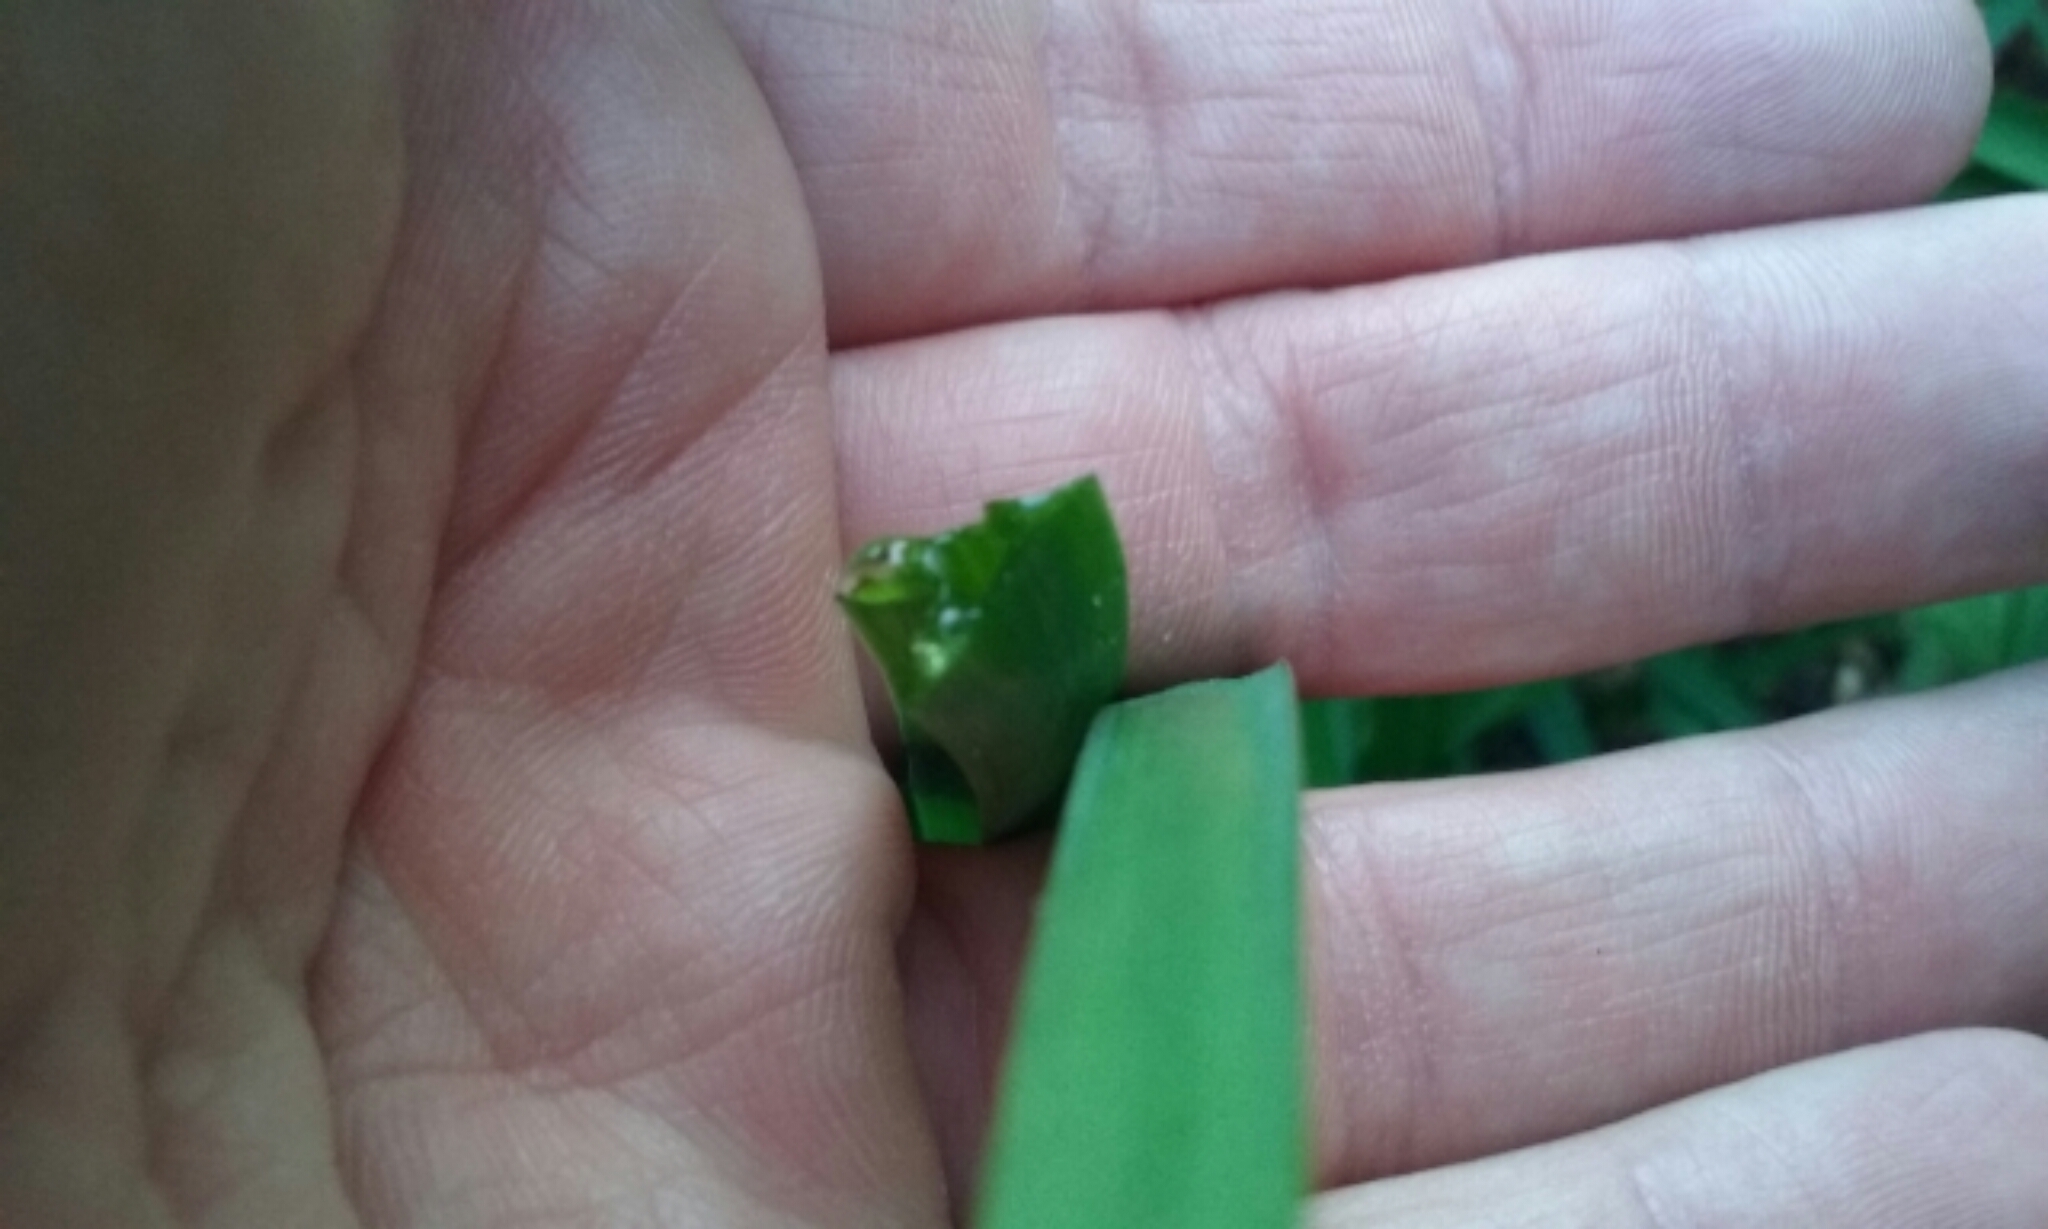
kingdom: Plantae
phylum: Tracheophyta
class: Liliopsida
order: Asparagales
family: Amaryllidaceae
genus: Allium
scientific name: Allium triquetrum
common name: Three-cornered garlic
